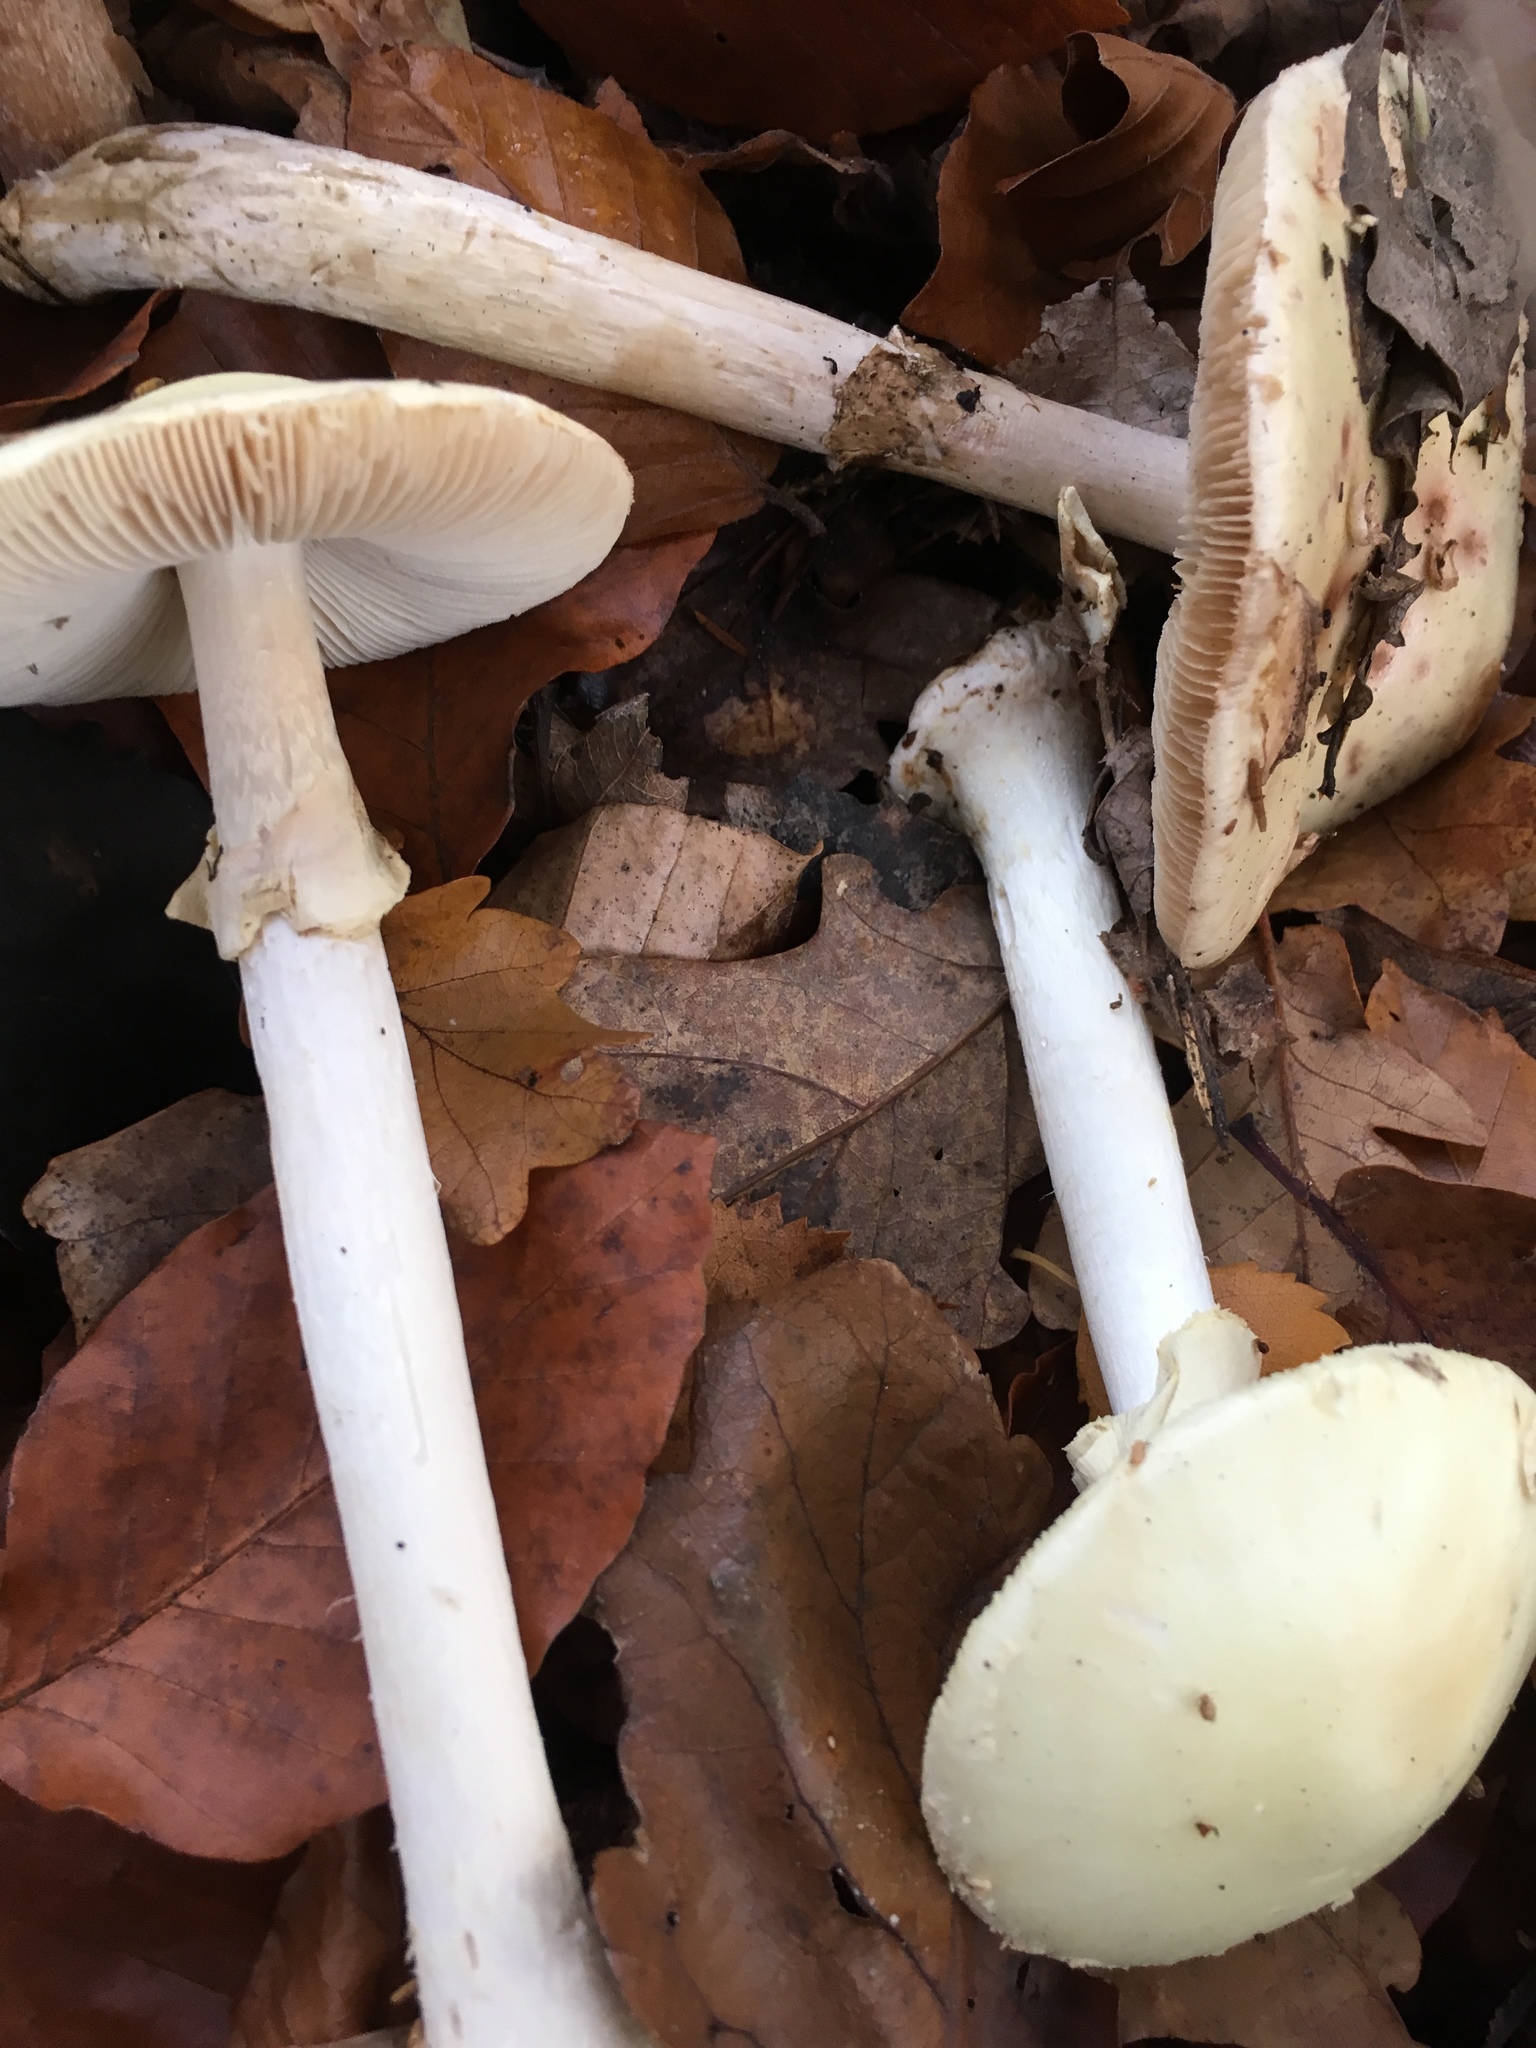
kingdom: Fungi
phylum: Basidiomycota
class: Agaricomycetes
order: Agaricales
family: Amanitaceae
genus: Amanita
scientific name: Amanita citrina
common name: False death-cap
